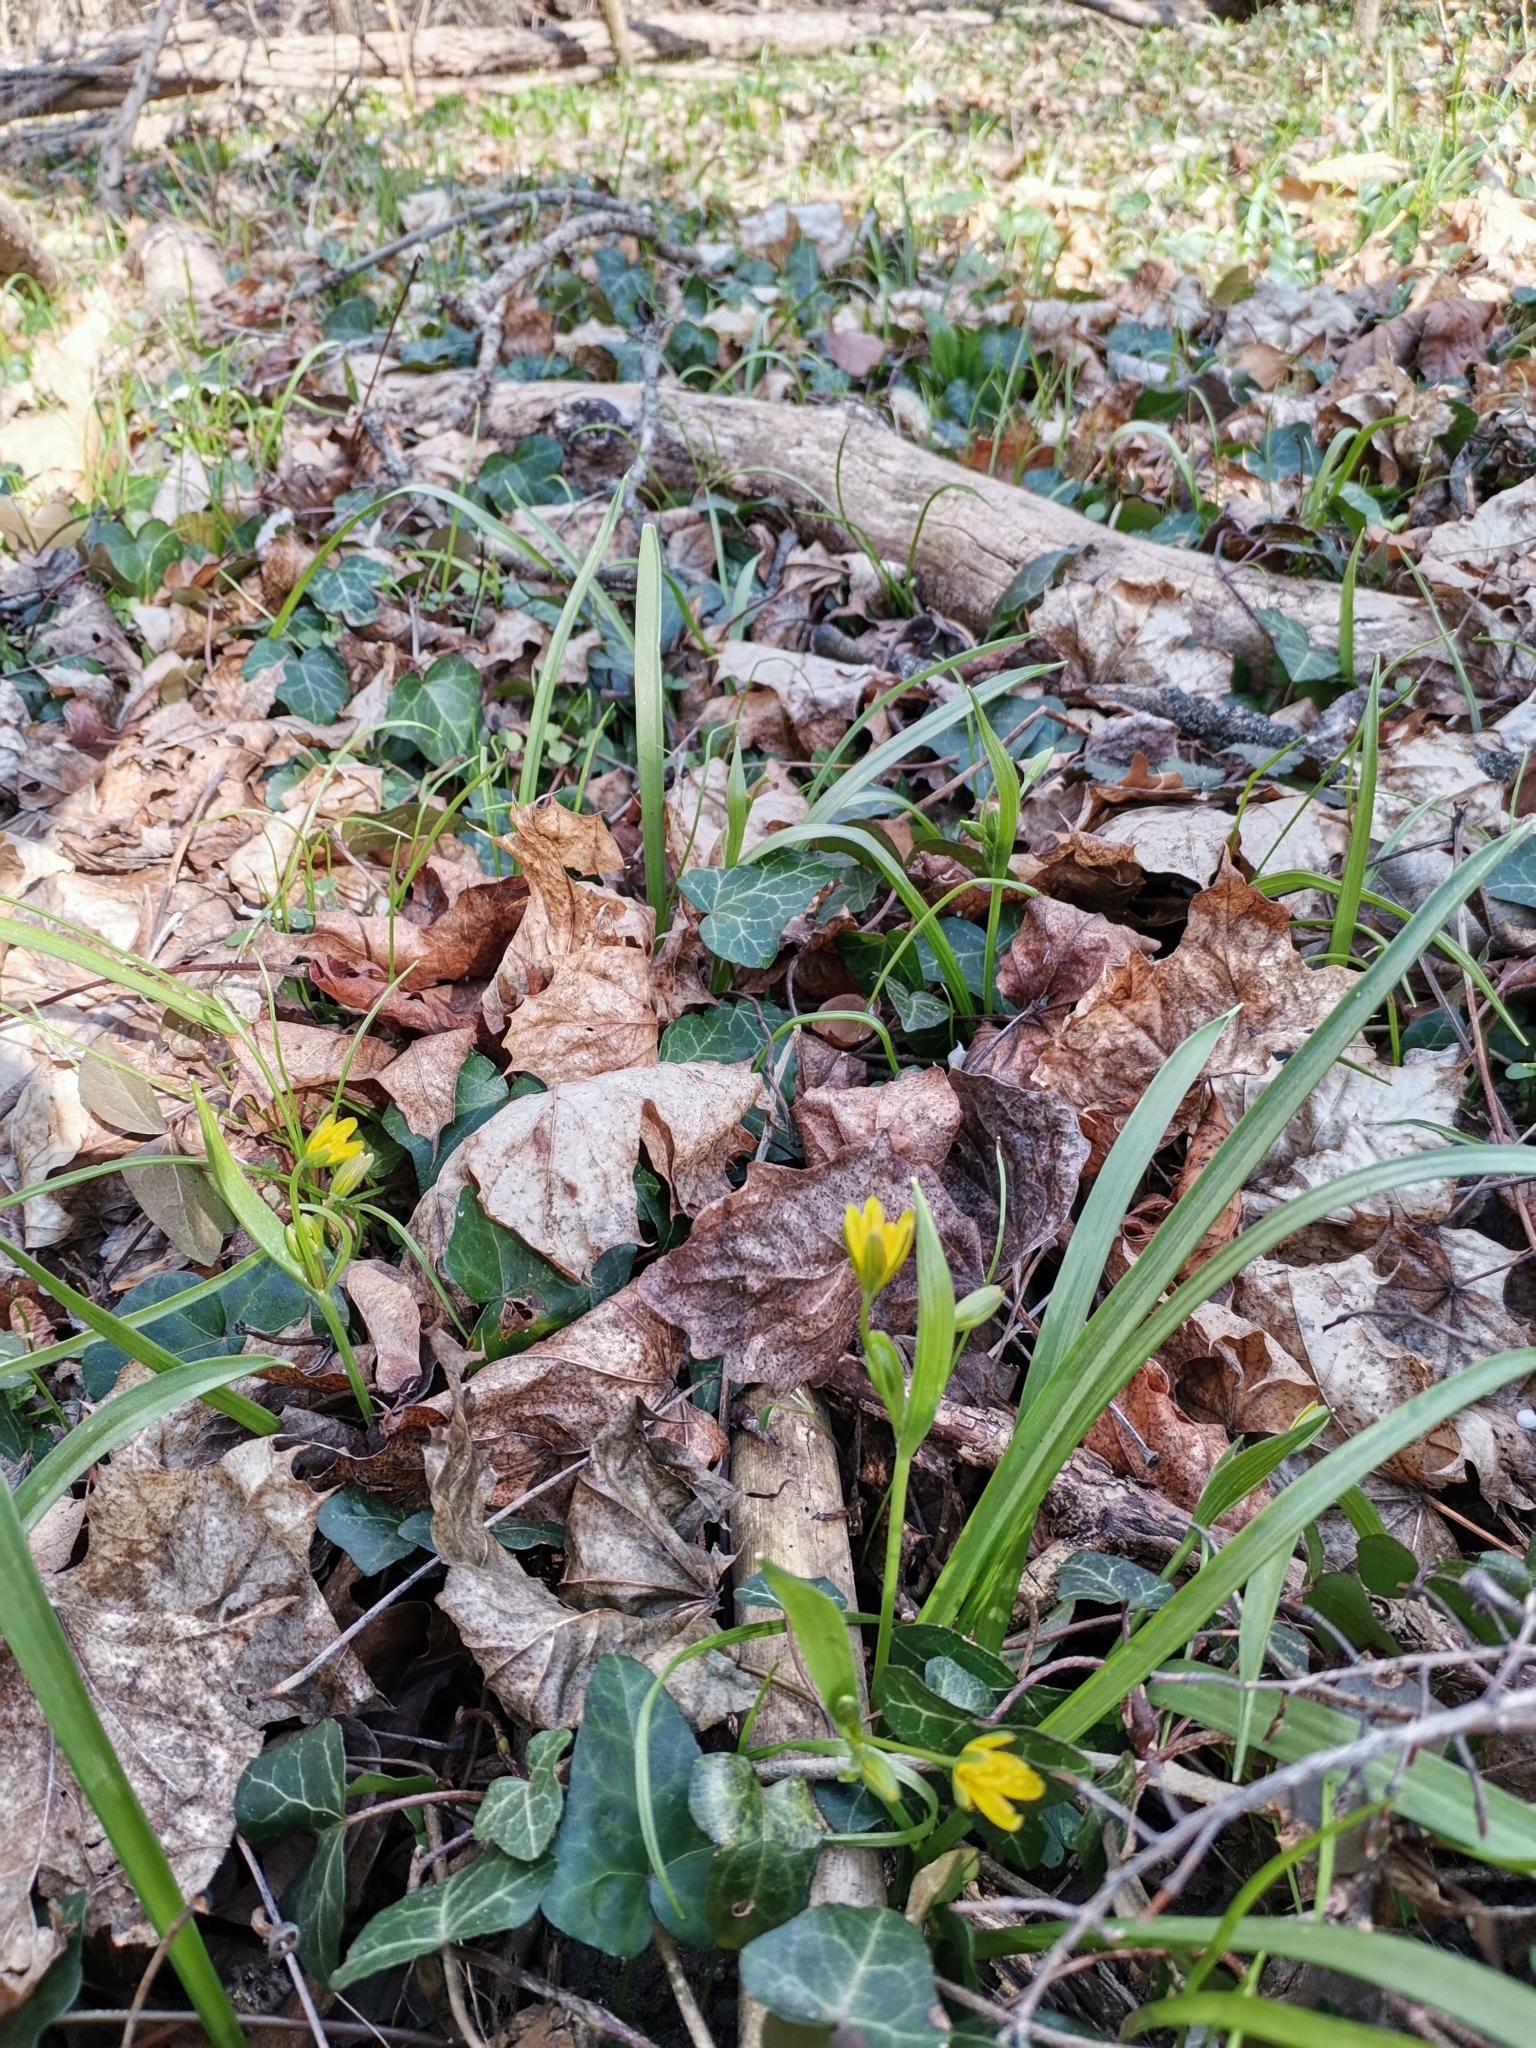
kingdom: Plantae
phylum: Tracheophyta
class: Liliopsida
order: Liliales
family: Liliaceae
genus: Gagea
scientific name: Gagea lutea
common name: Yellow star-of-bethlehem
